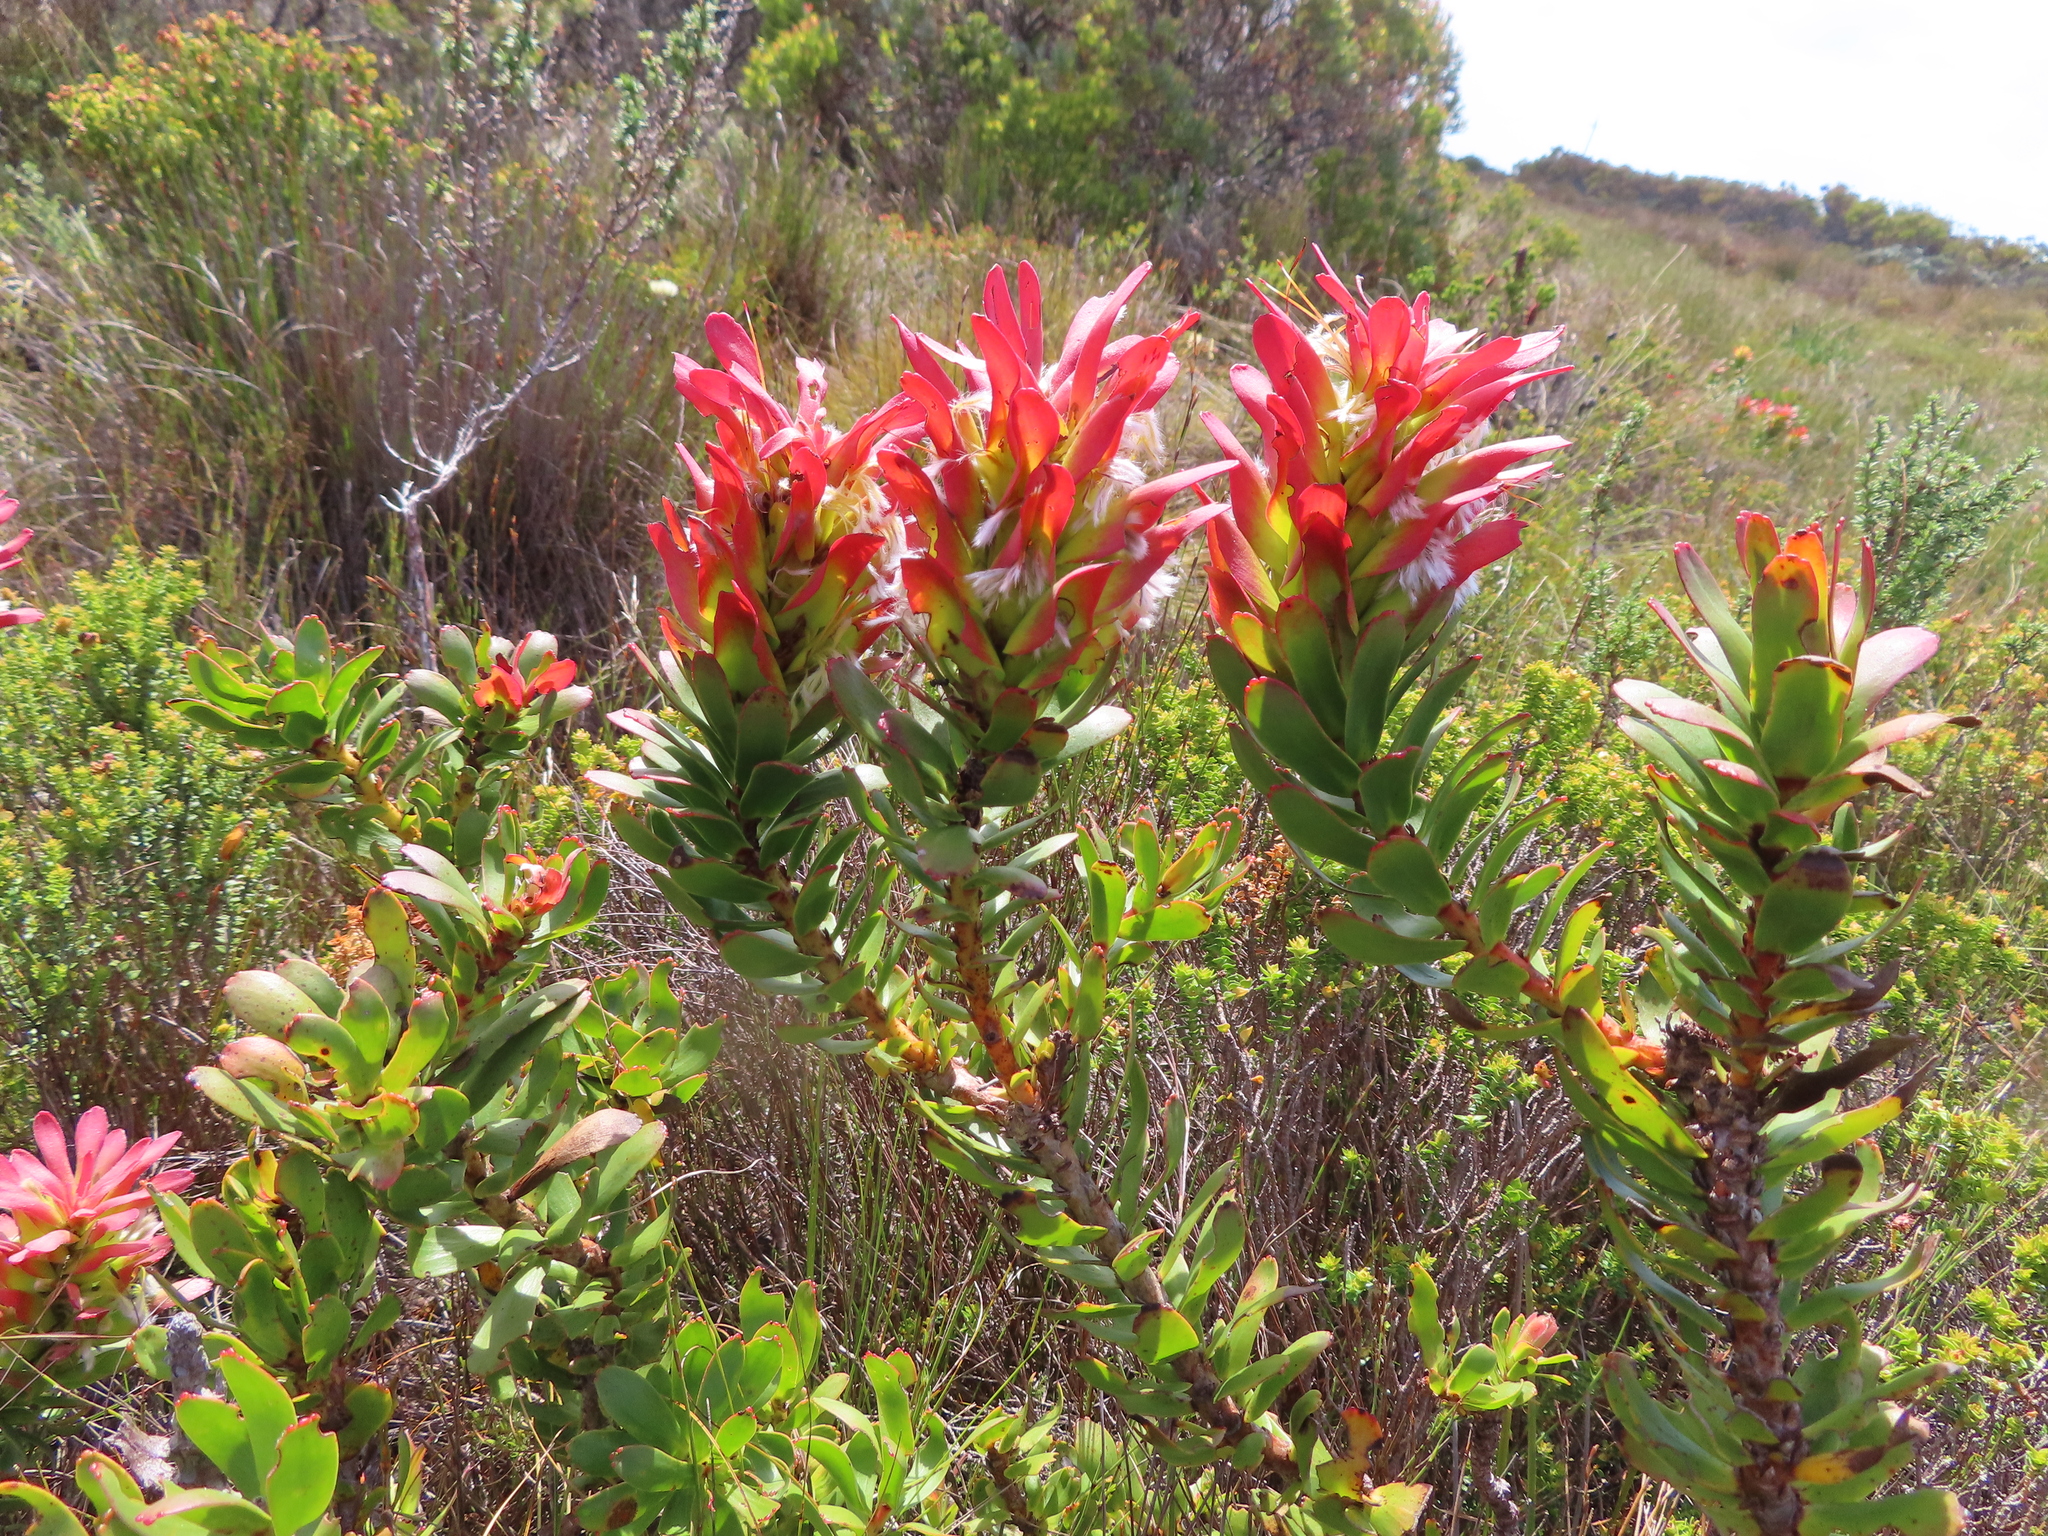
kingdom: Plantae
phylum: Tracheophyta
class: Magnoliopsida
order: Proteales
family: Proteaceae
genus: Mimetes
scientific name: Mimetes cucullatus
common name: Common pagoda
